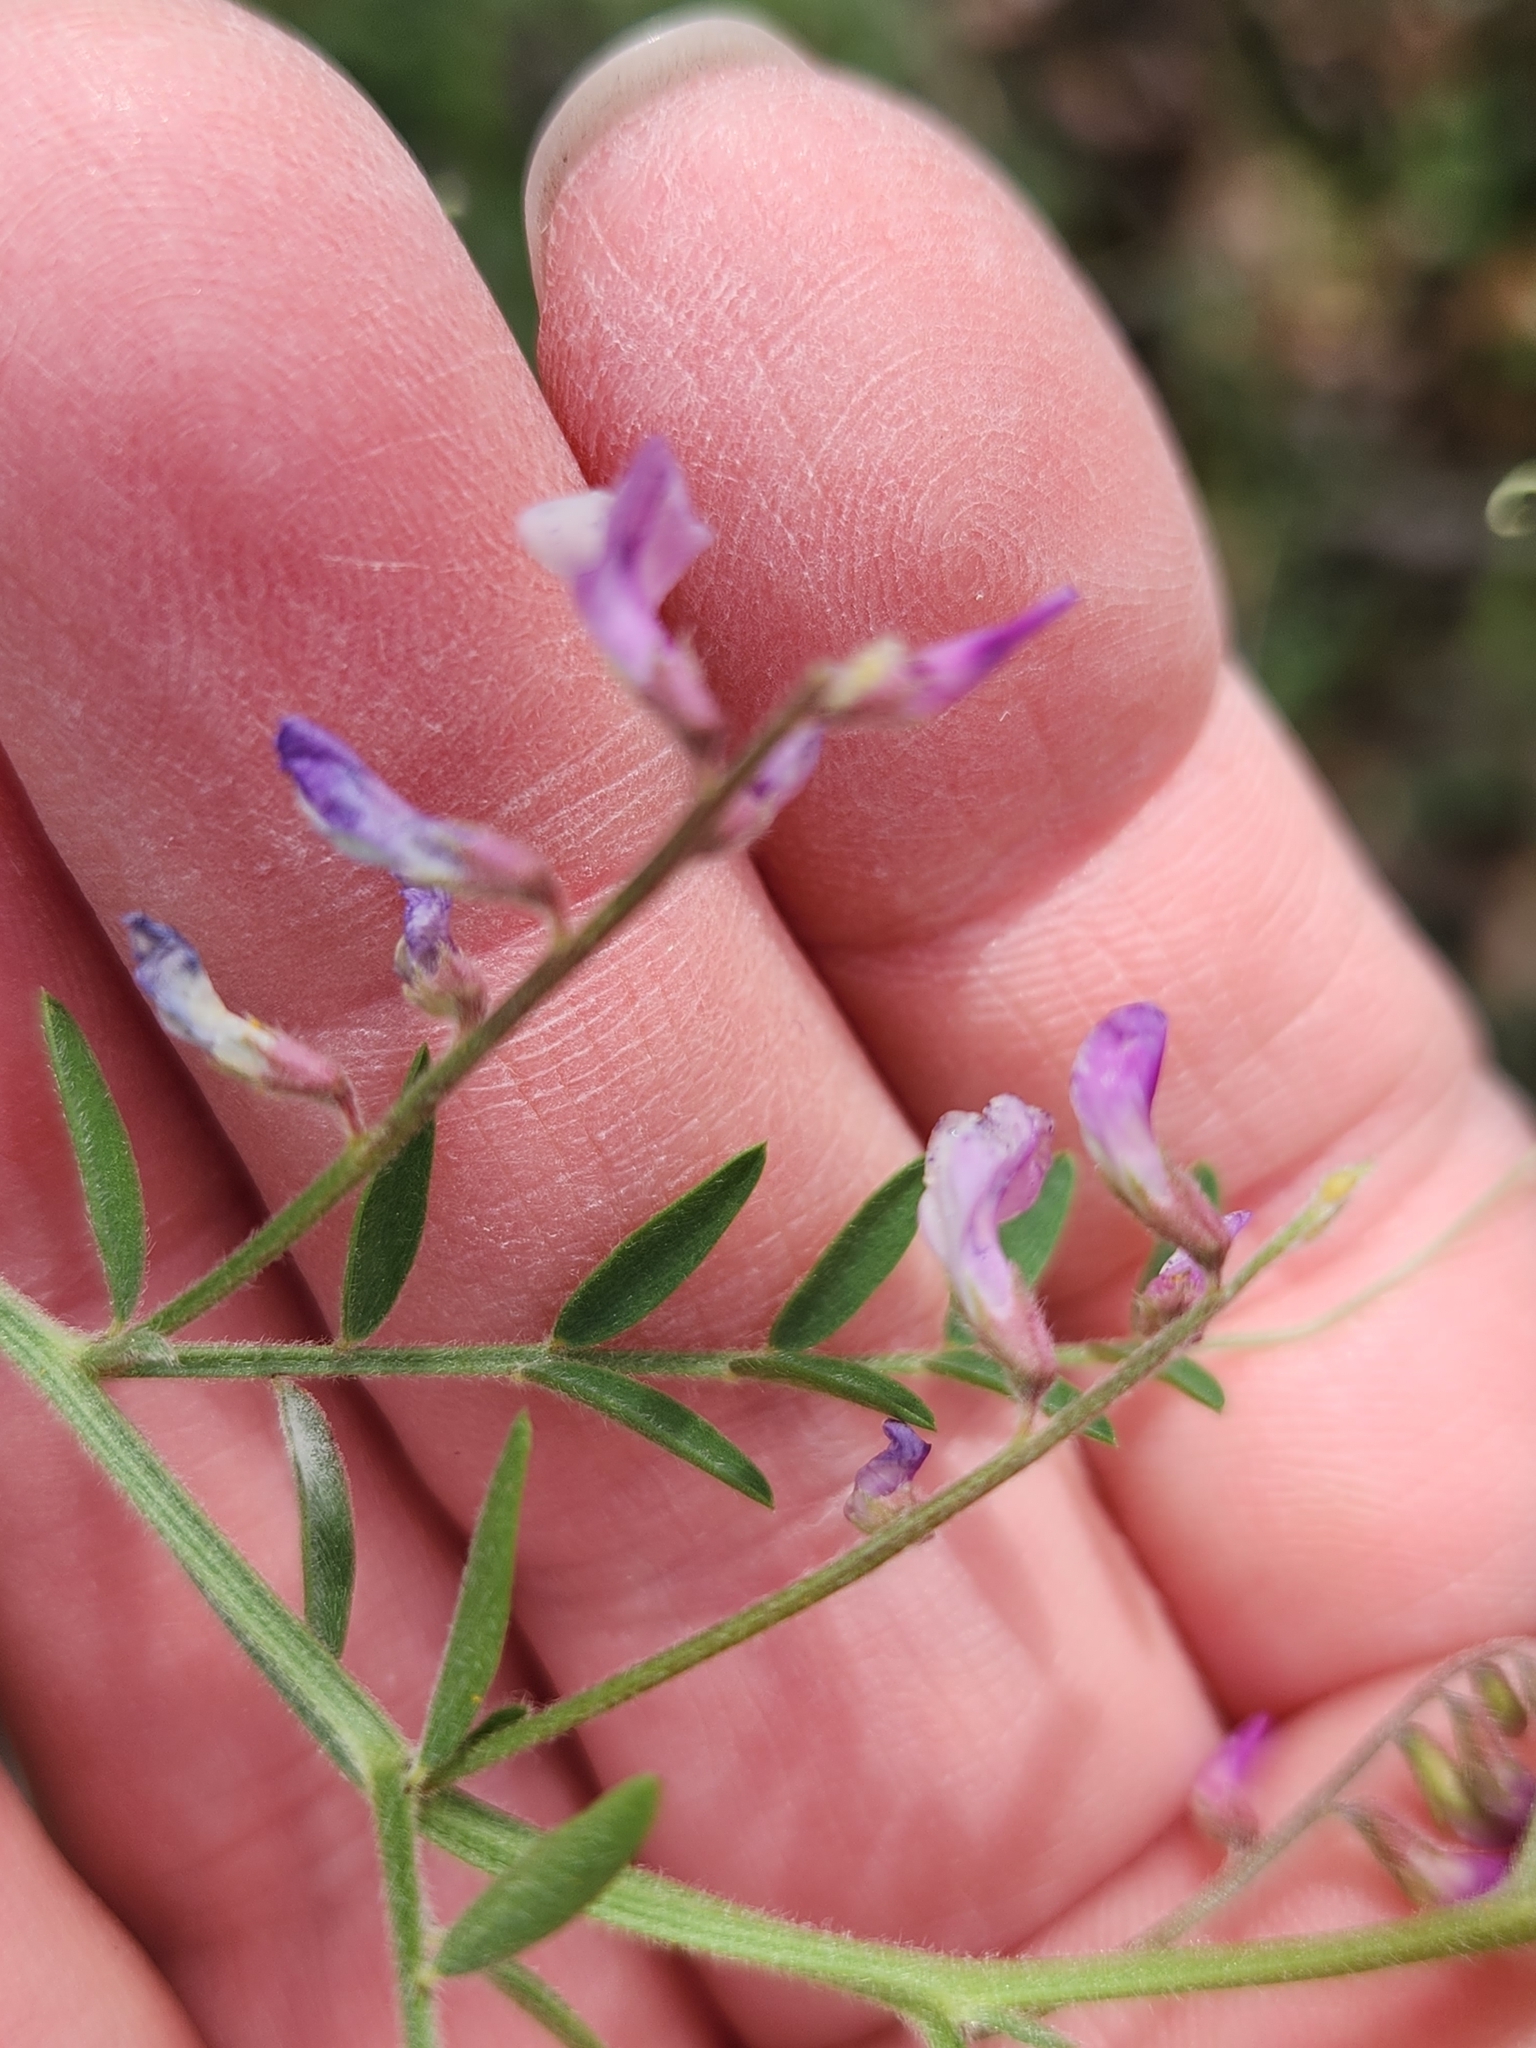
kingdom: Plantae
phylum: Tracheophyta
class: Magnoliopsida
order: Fabales
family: Fabaceae
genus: Vicia
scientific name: Vicia ludoviciana
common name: Louisiana vetch
